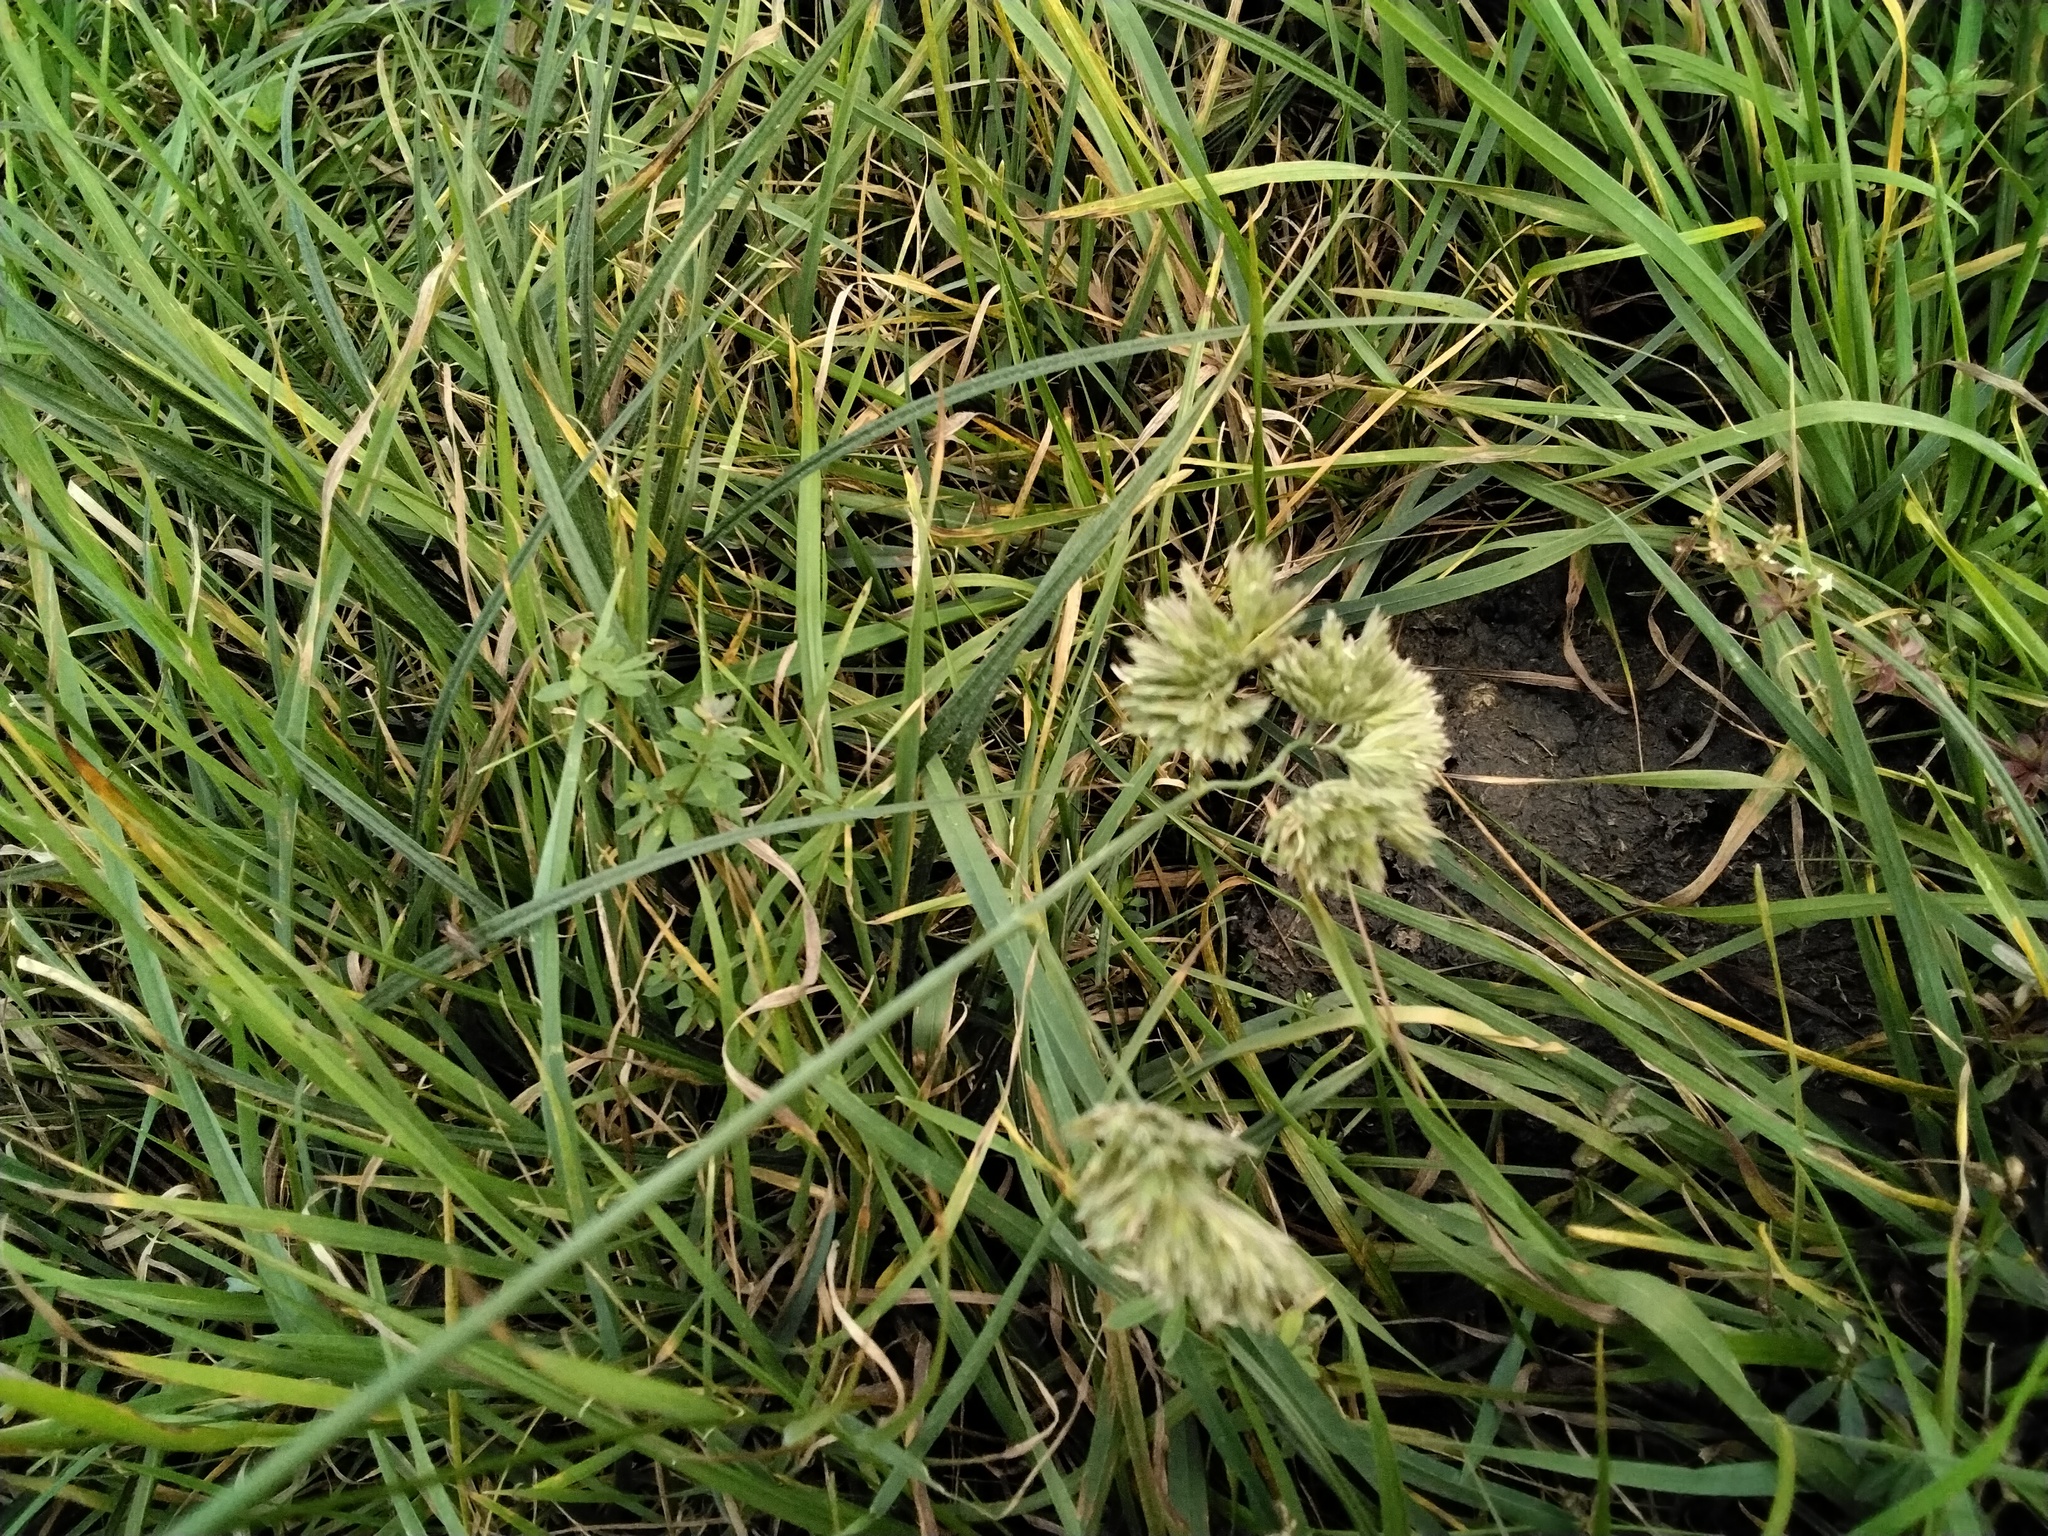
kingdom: Plantae
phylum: Tracheophyta
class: Liliopsida
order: Poales
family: Poaceae
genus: Dactylis
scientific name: Dactylis glomerata
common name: Orchardgrass
